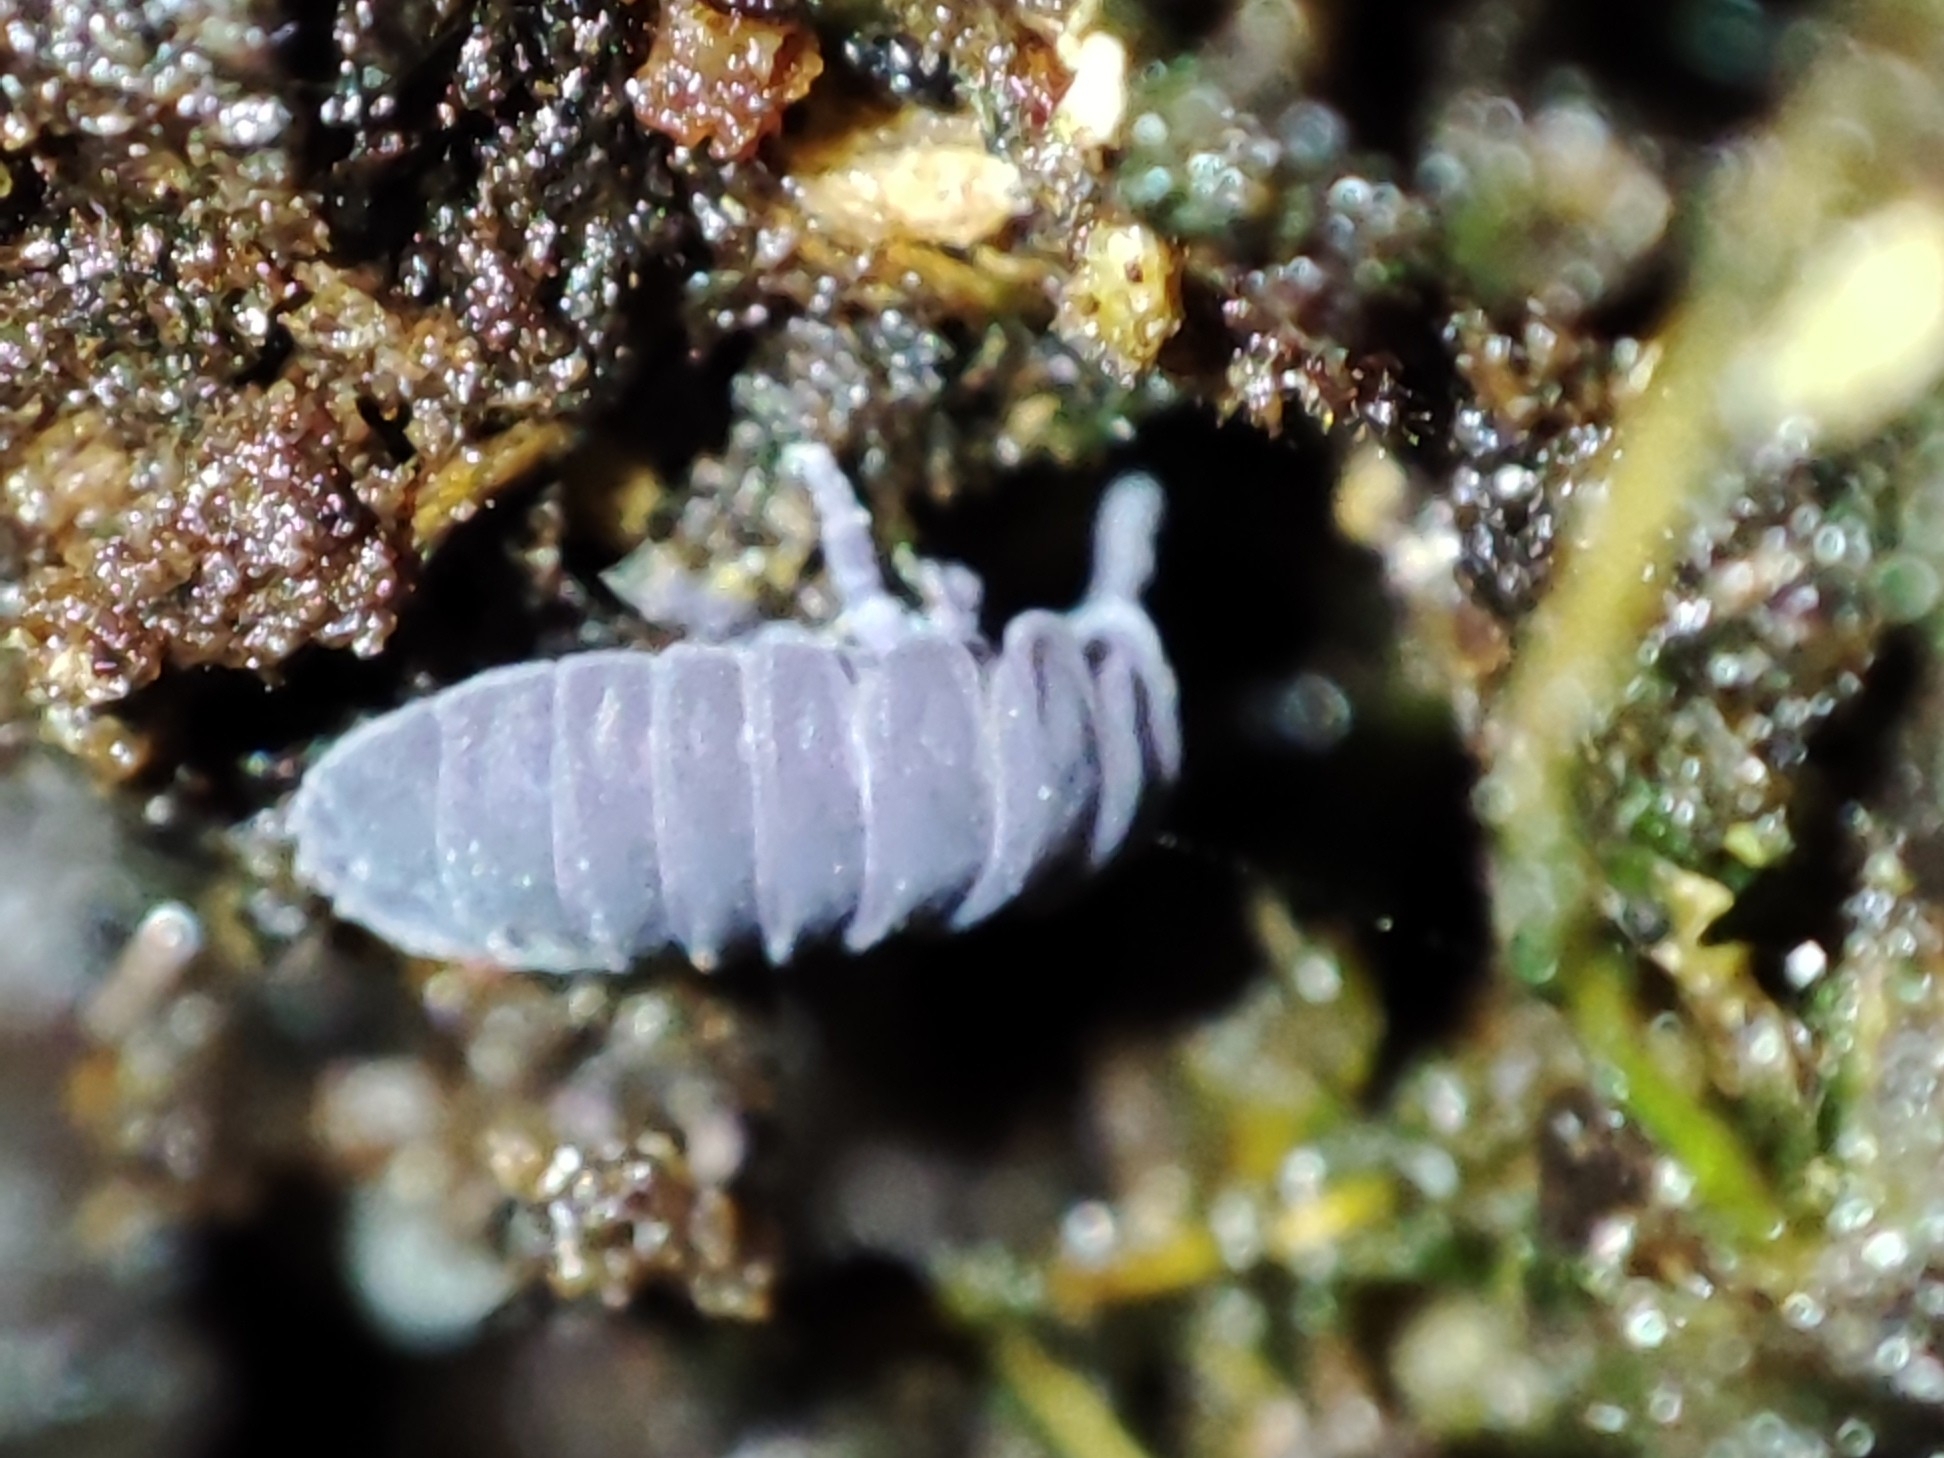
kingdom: Animalia
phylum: Arthropoda
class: Collembola
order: Poduromorpha
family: Onychiuridae
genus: Tetrodontophora
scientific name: Tetrodontophora bielanensis
